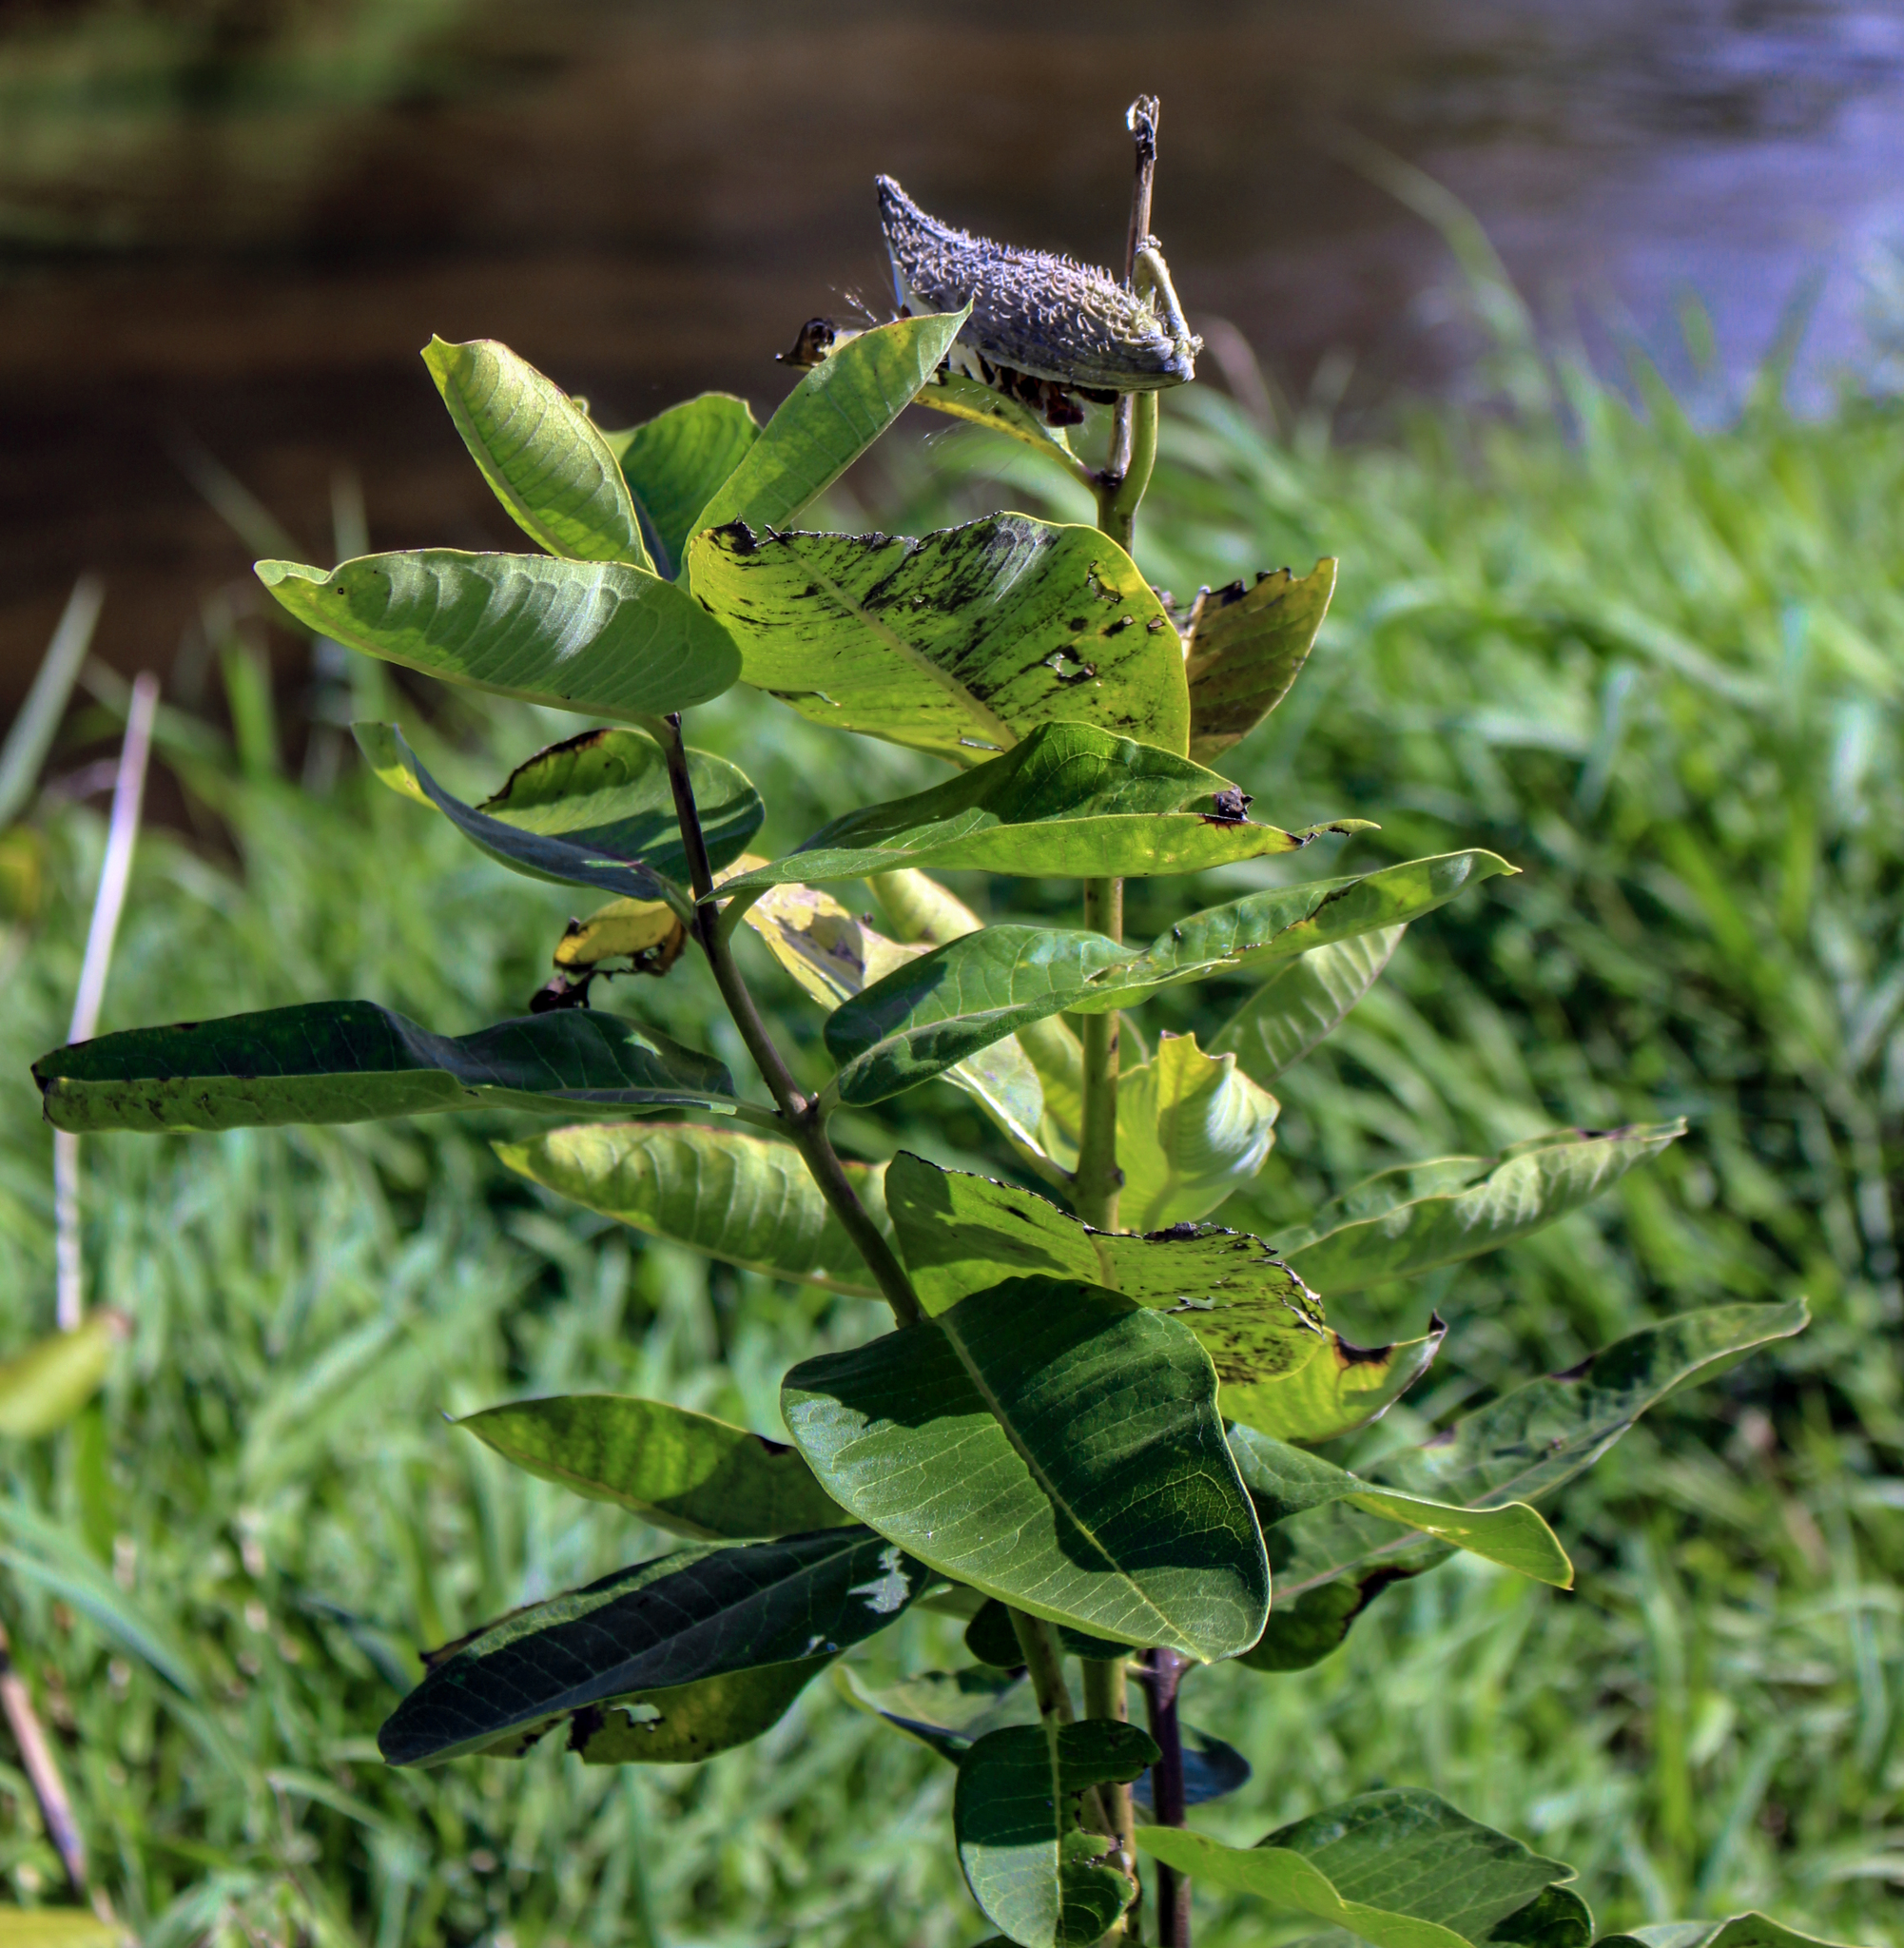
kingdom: Plantae
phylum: Tracheophyta
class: Magnoliopsida
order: Gentianales
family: Apocynaceae
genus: Asclepias
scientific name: Asclepias syriaca
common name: Common milkweed
